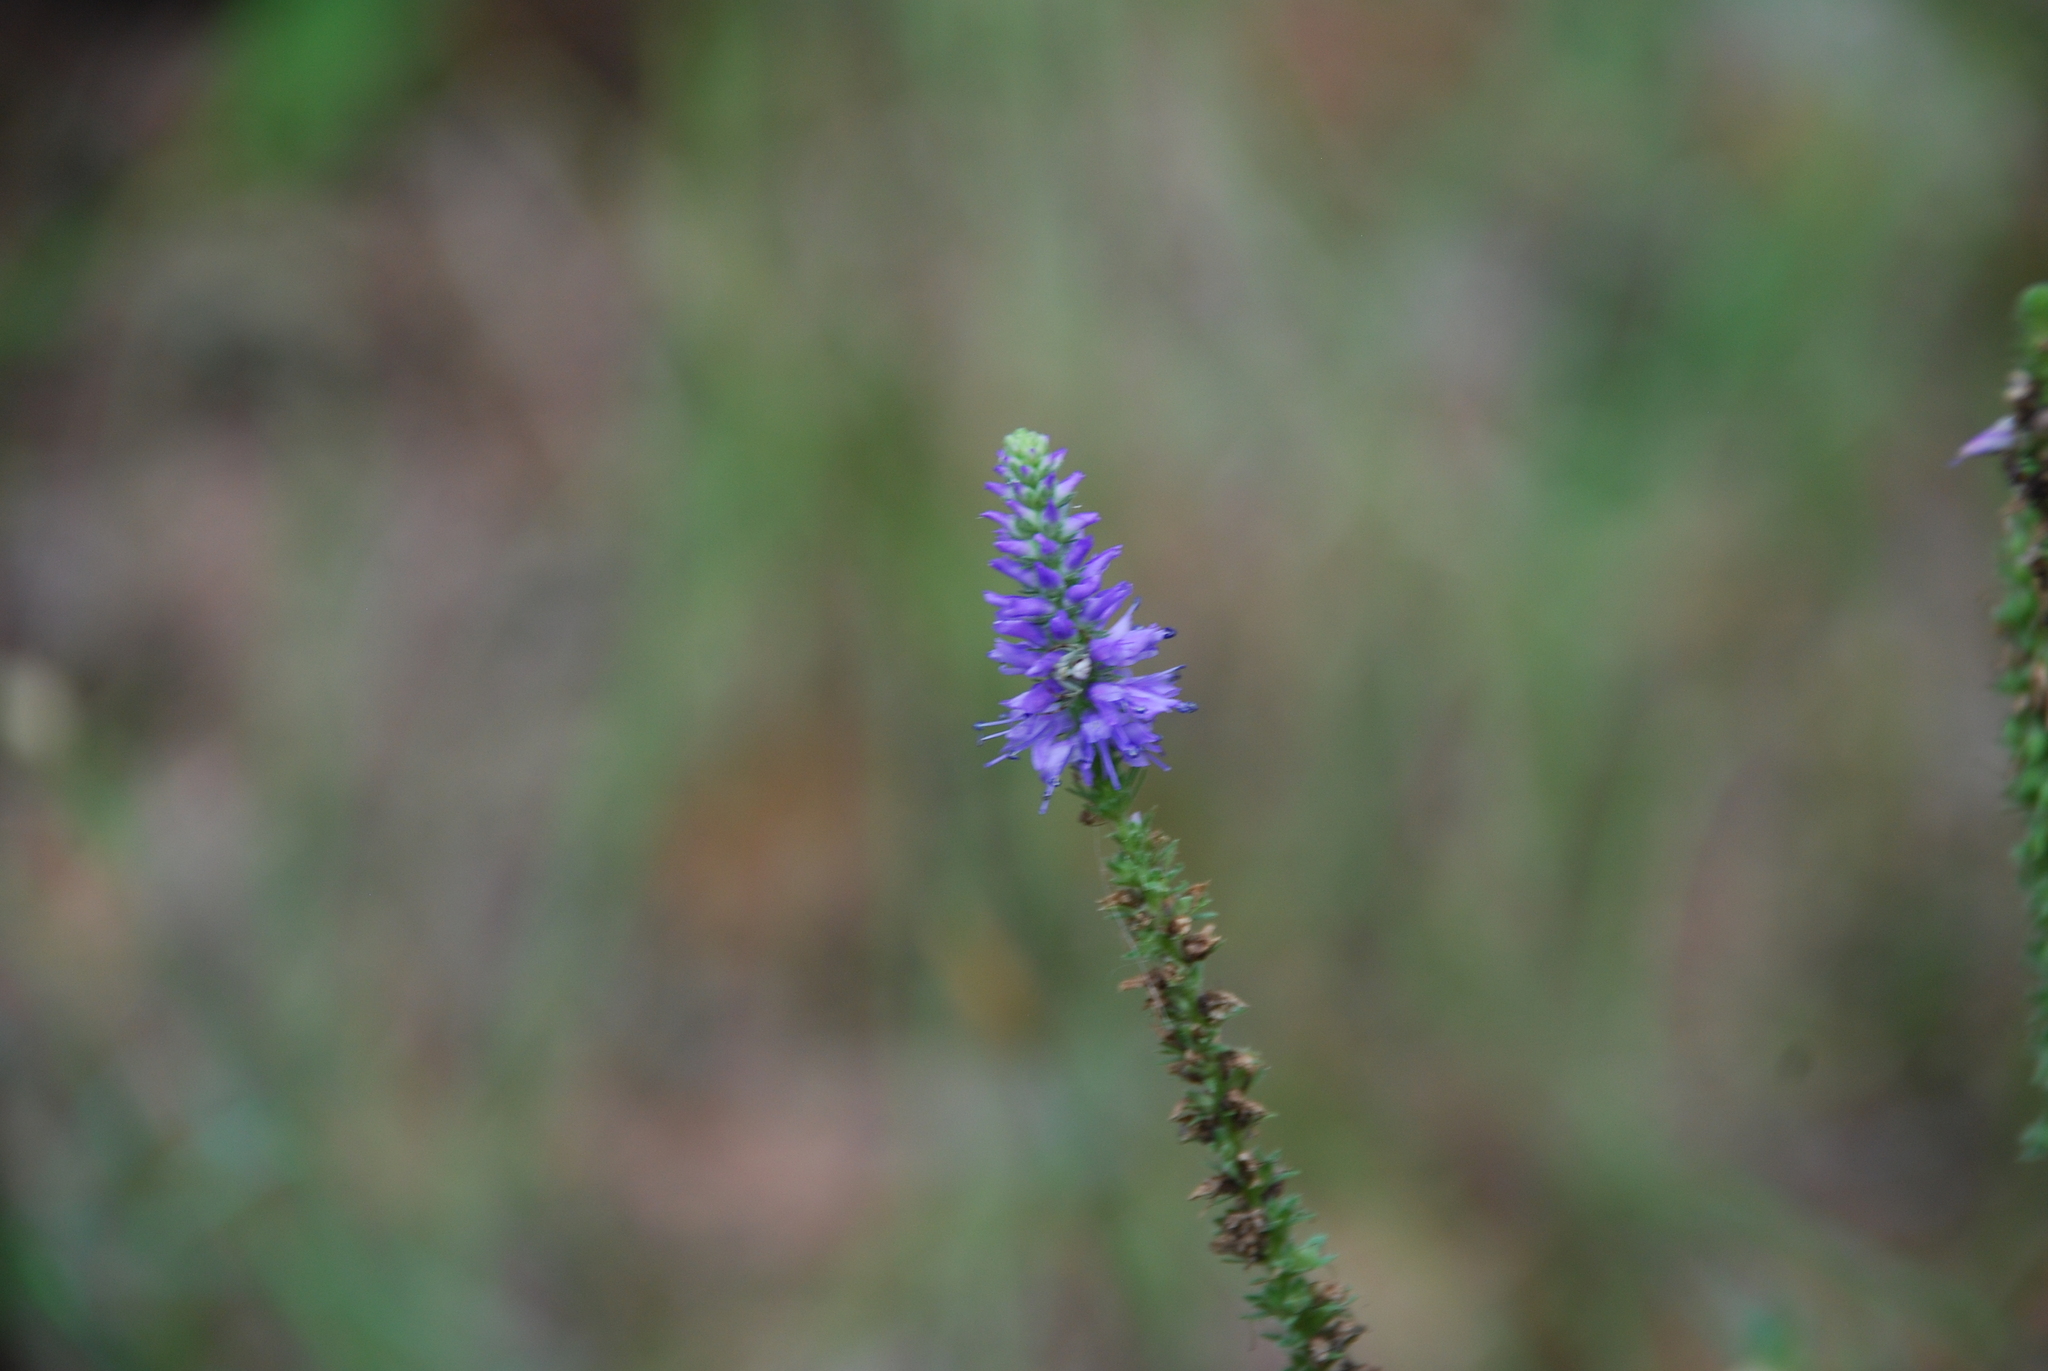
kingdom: Plantae
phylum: Tracheophyta
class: Magnoliopsida
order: Lamiales
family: Plantaginaceae
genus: Veronica
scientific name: Veronica spicata
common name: Spiked speedwell
